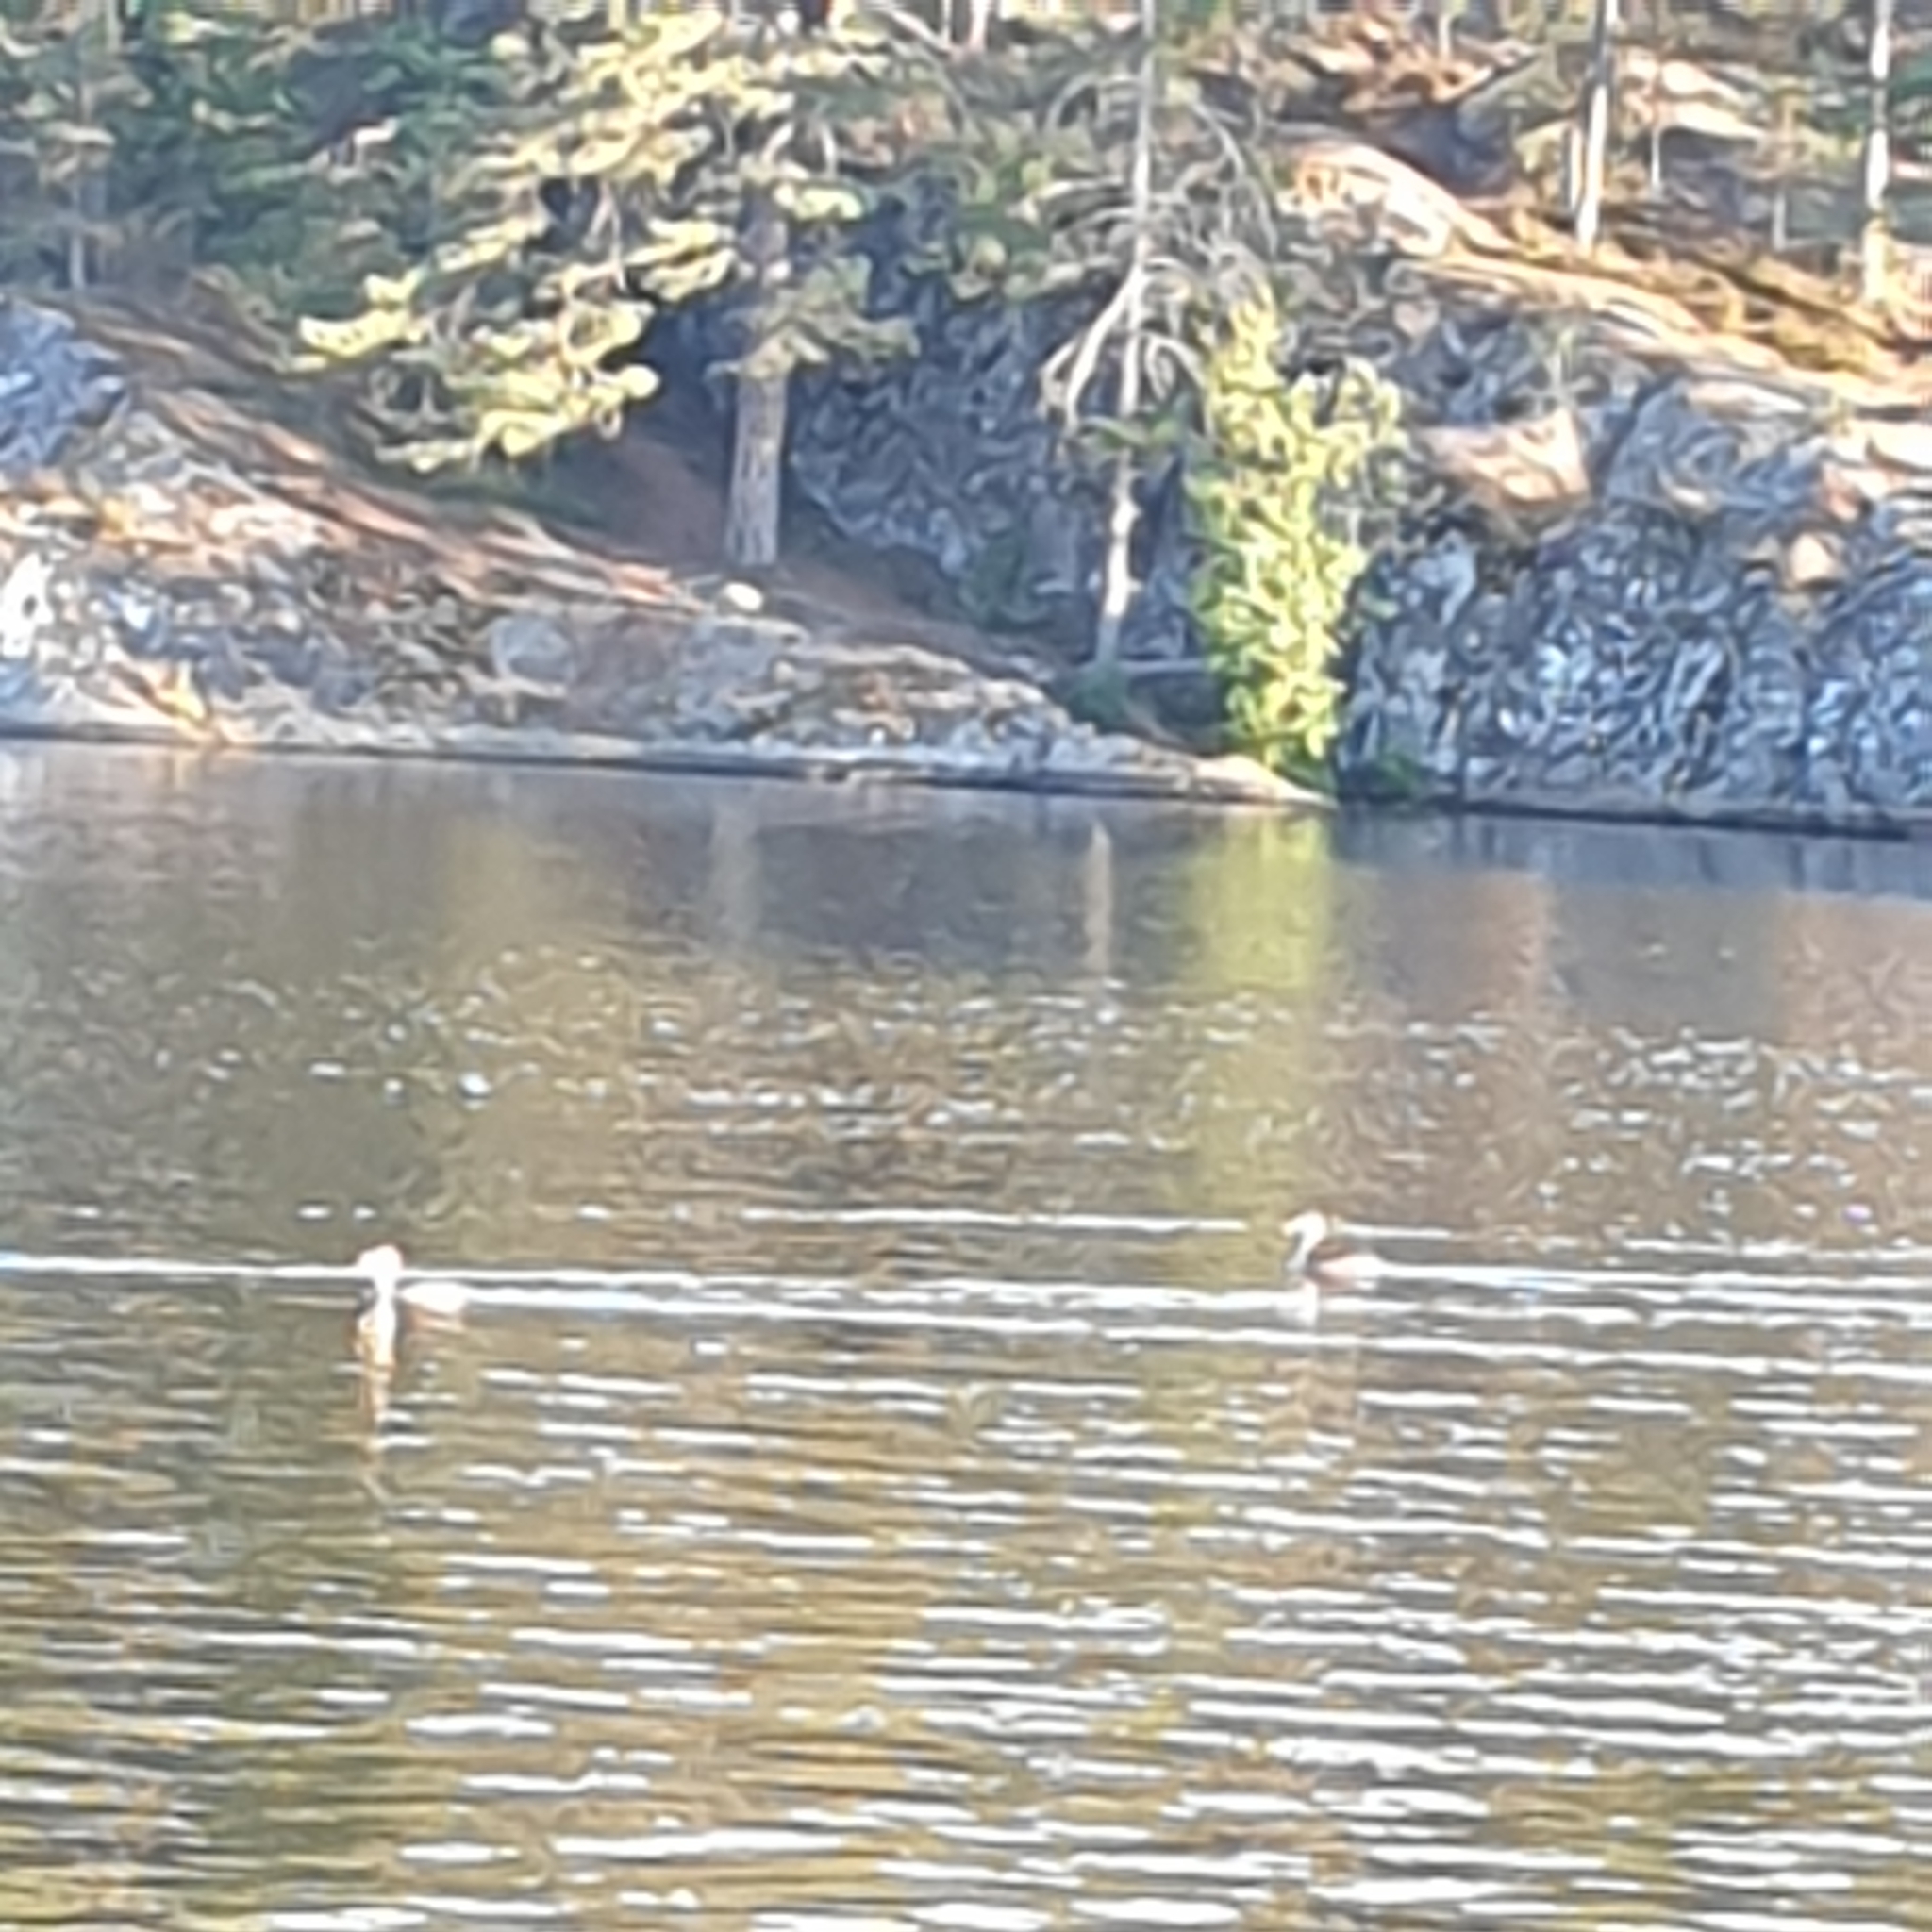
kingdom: Animalia
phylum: Chordata
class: Aves
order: Podicipediformes
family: Podicipedidae
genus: Podiceps
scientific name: Podiceps cristatus
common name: Great crested grebe
